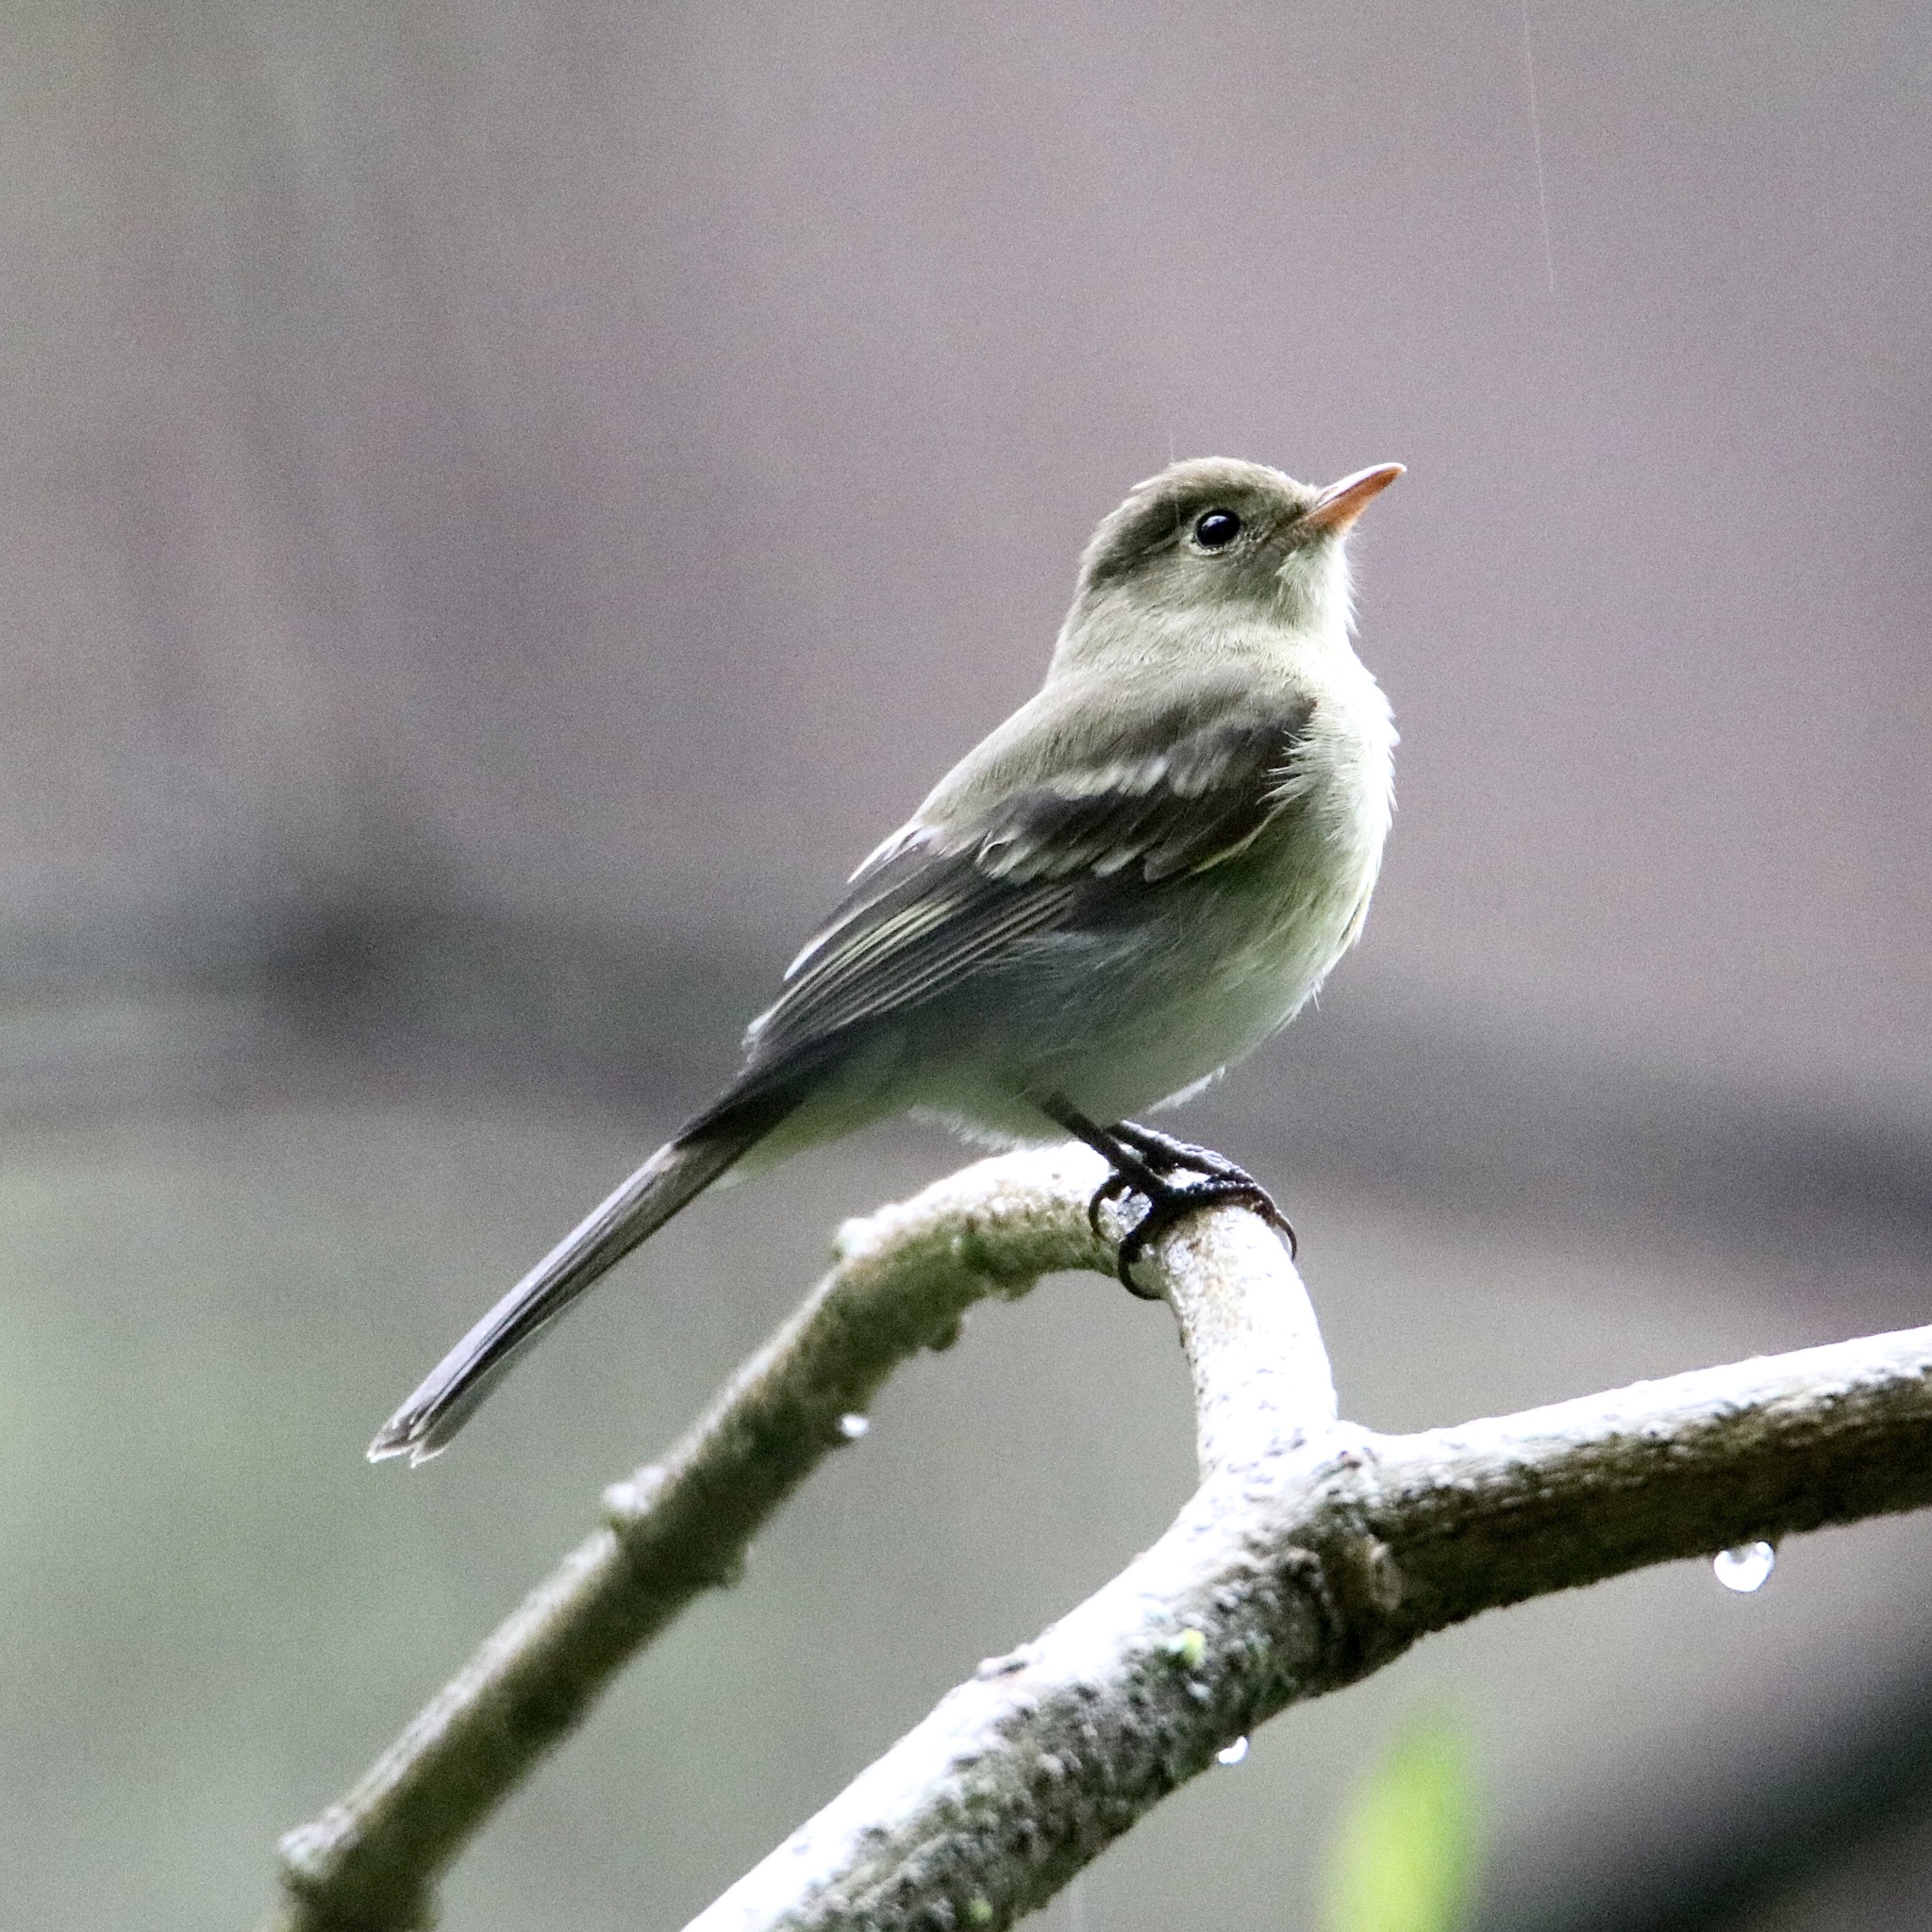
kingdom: Animalia
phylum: Chordata
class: Aves
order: Passeriformes
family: Tyrannidae
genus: Elaenia
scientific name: Elaenia frantzii
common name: Mountain elaenia
